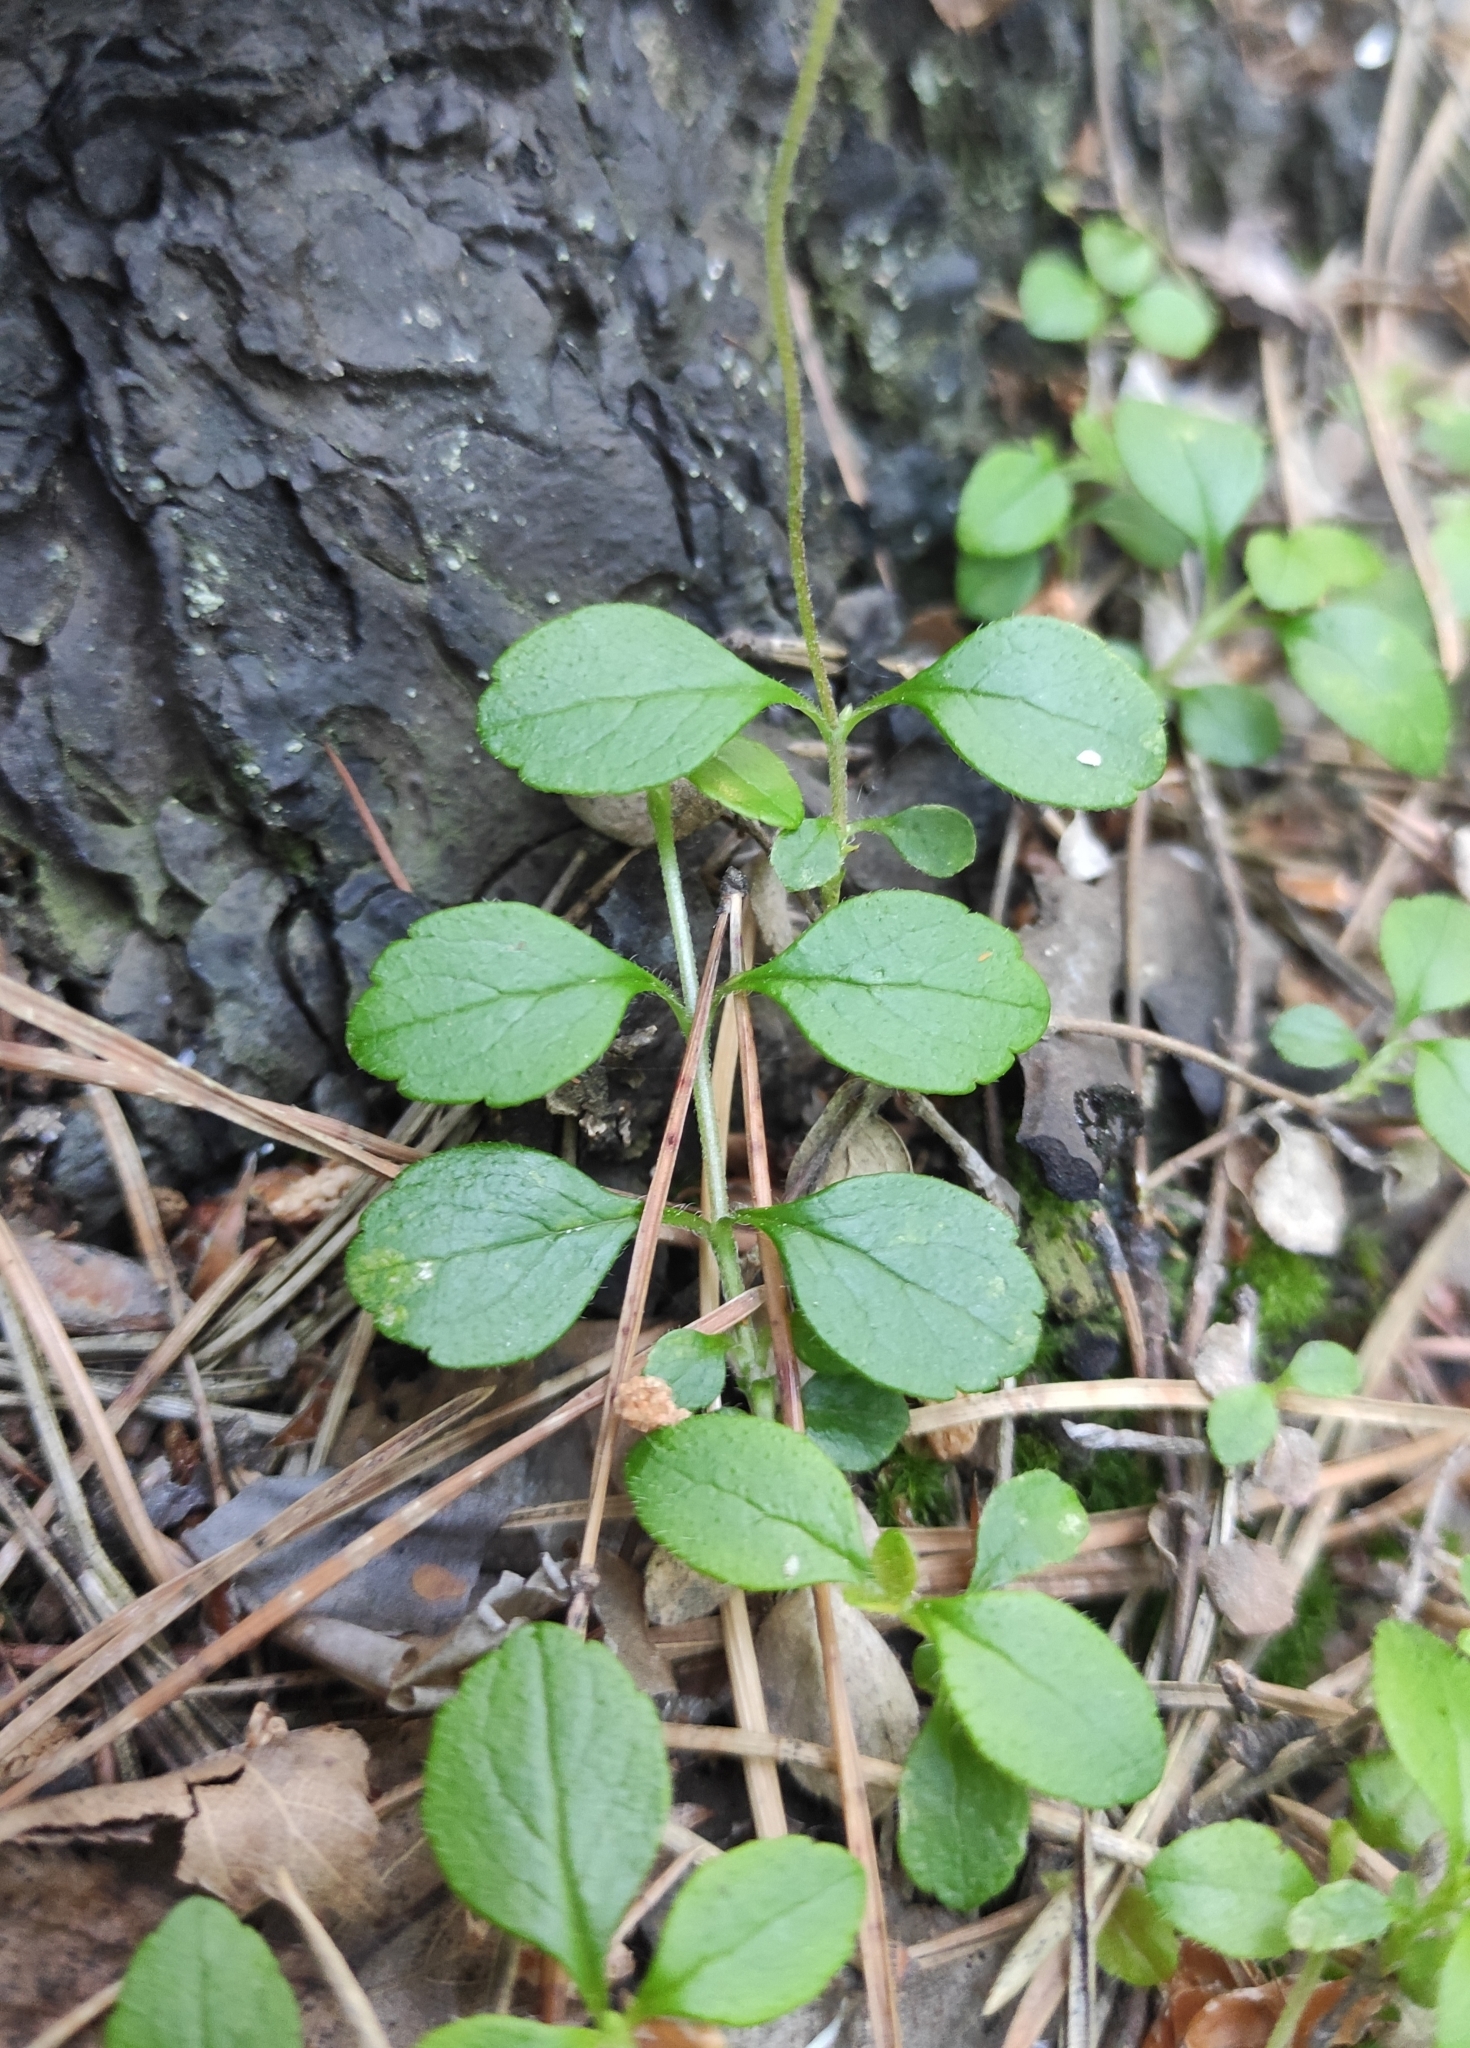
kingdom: Plantae
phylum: Tracheophyta
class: Magnoliopsida
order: Dipsacales
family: Caprifoliaceae
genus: Linnaea
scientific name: Linnaea borealis
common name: Twinflower
